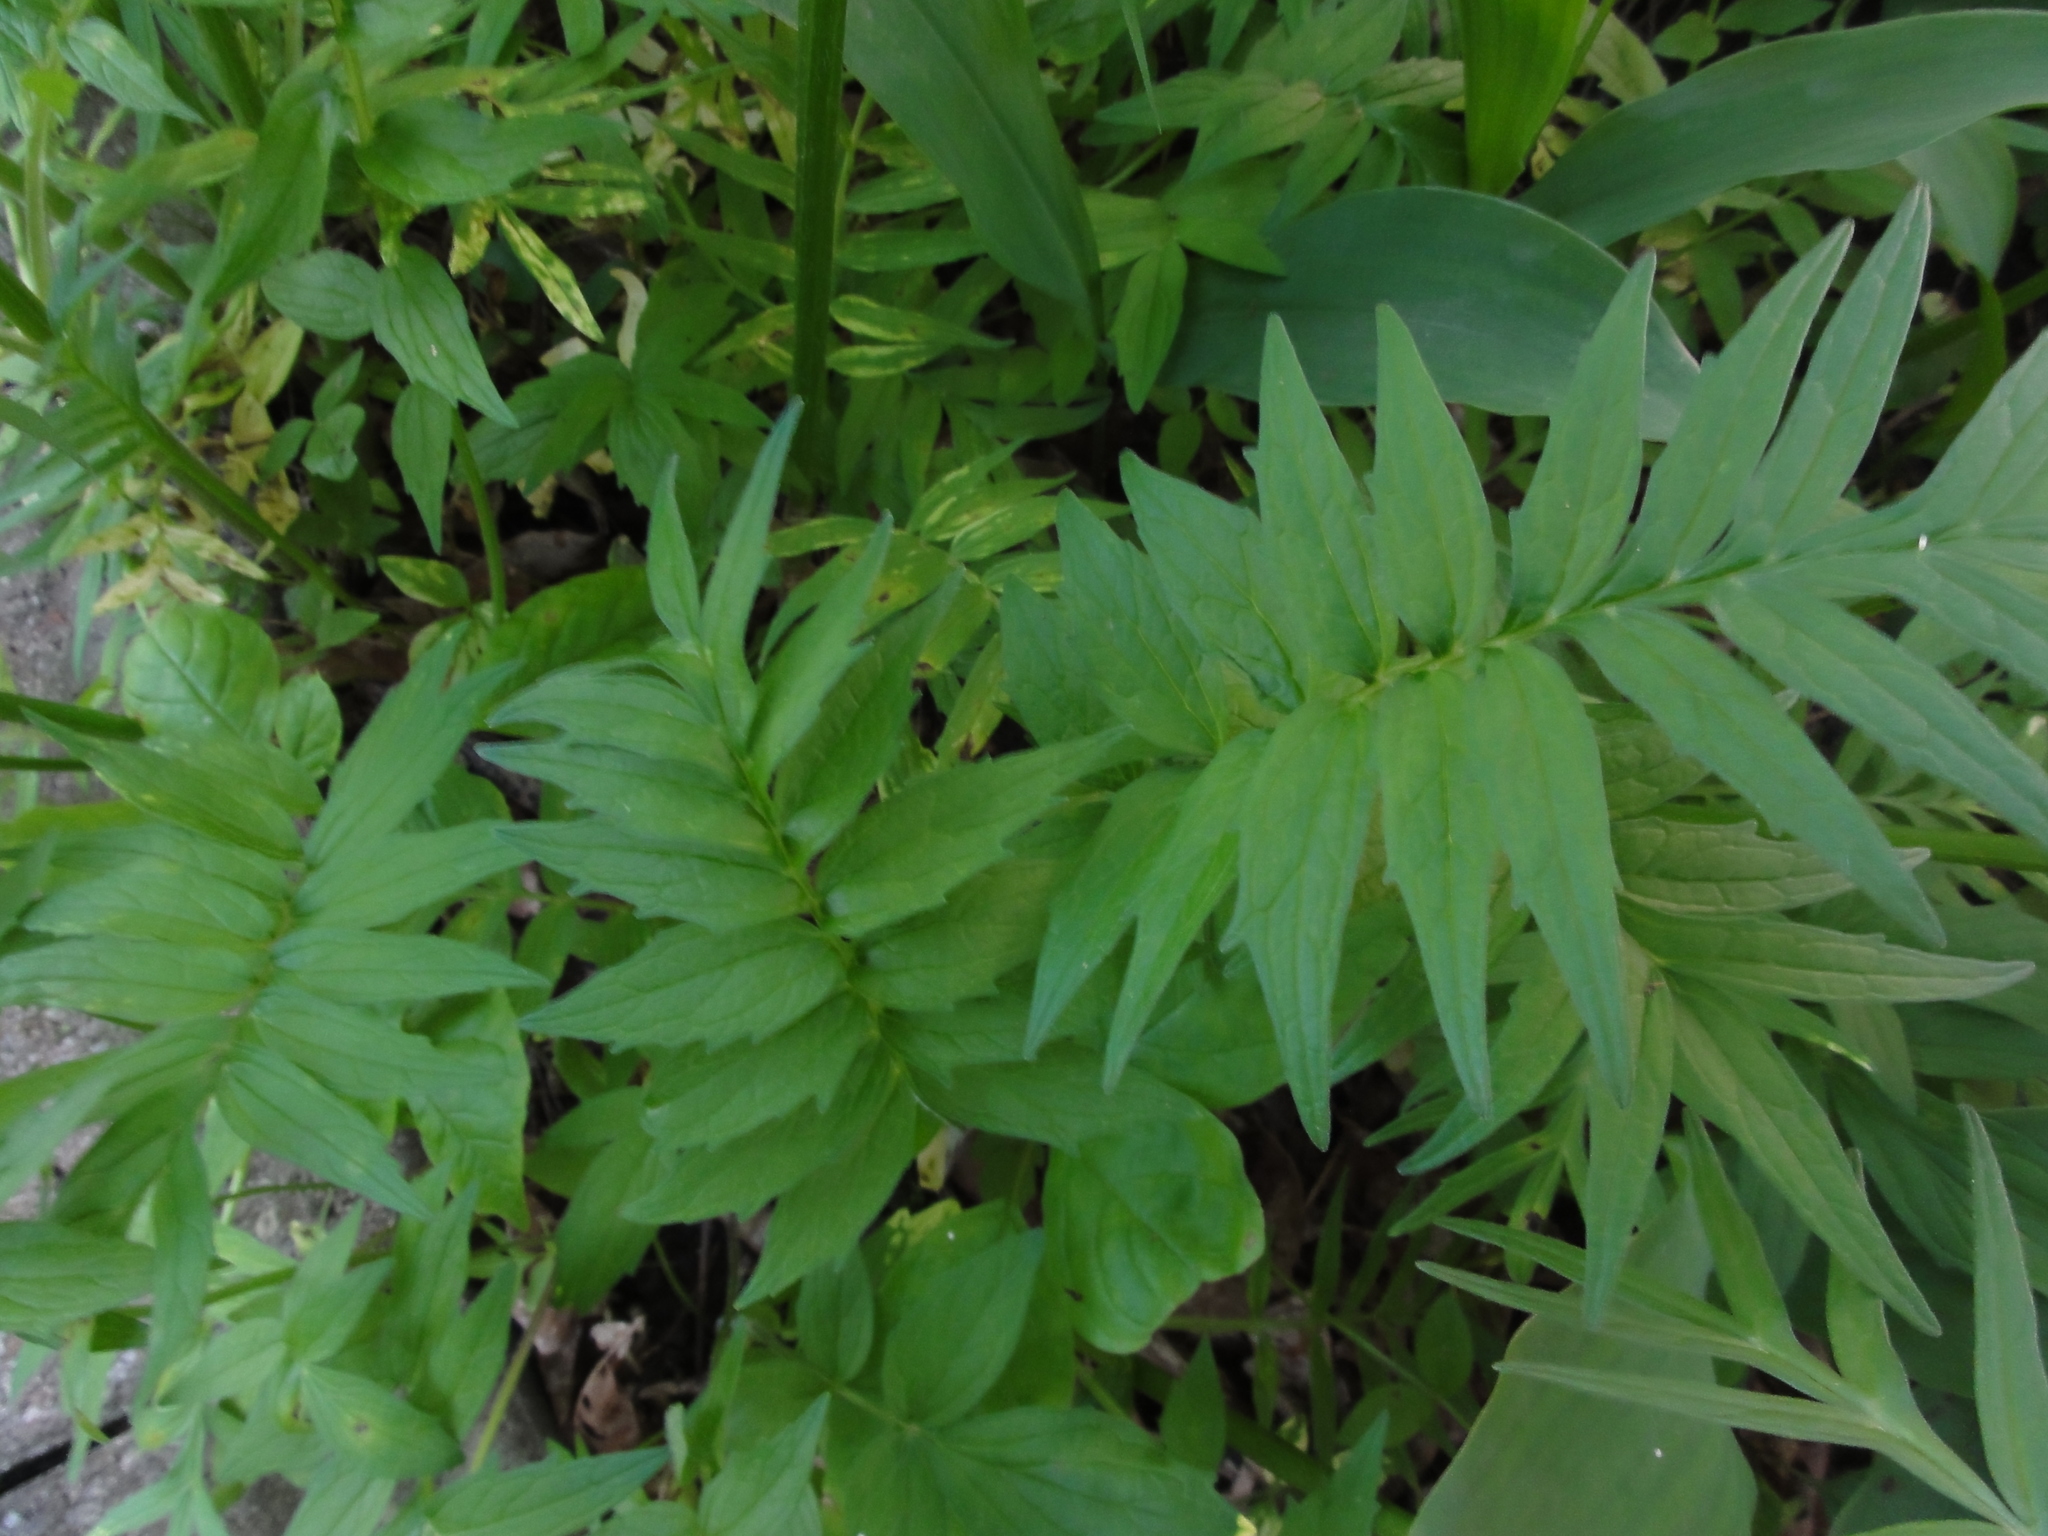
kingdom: Plantae
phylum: Tracheophyta
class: Magnoliopsida
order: Dipsacales
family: Caprifoliaceae
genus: Valeriana
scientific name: Valeriana officinalis
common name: Common valerian
